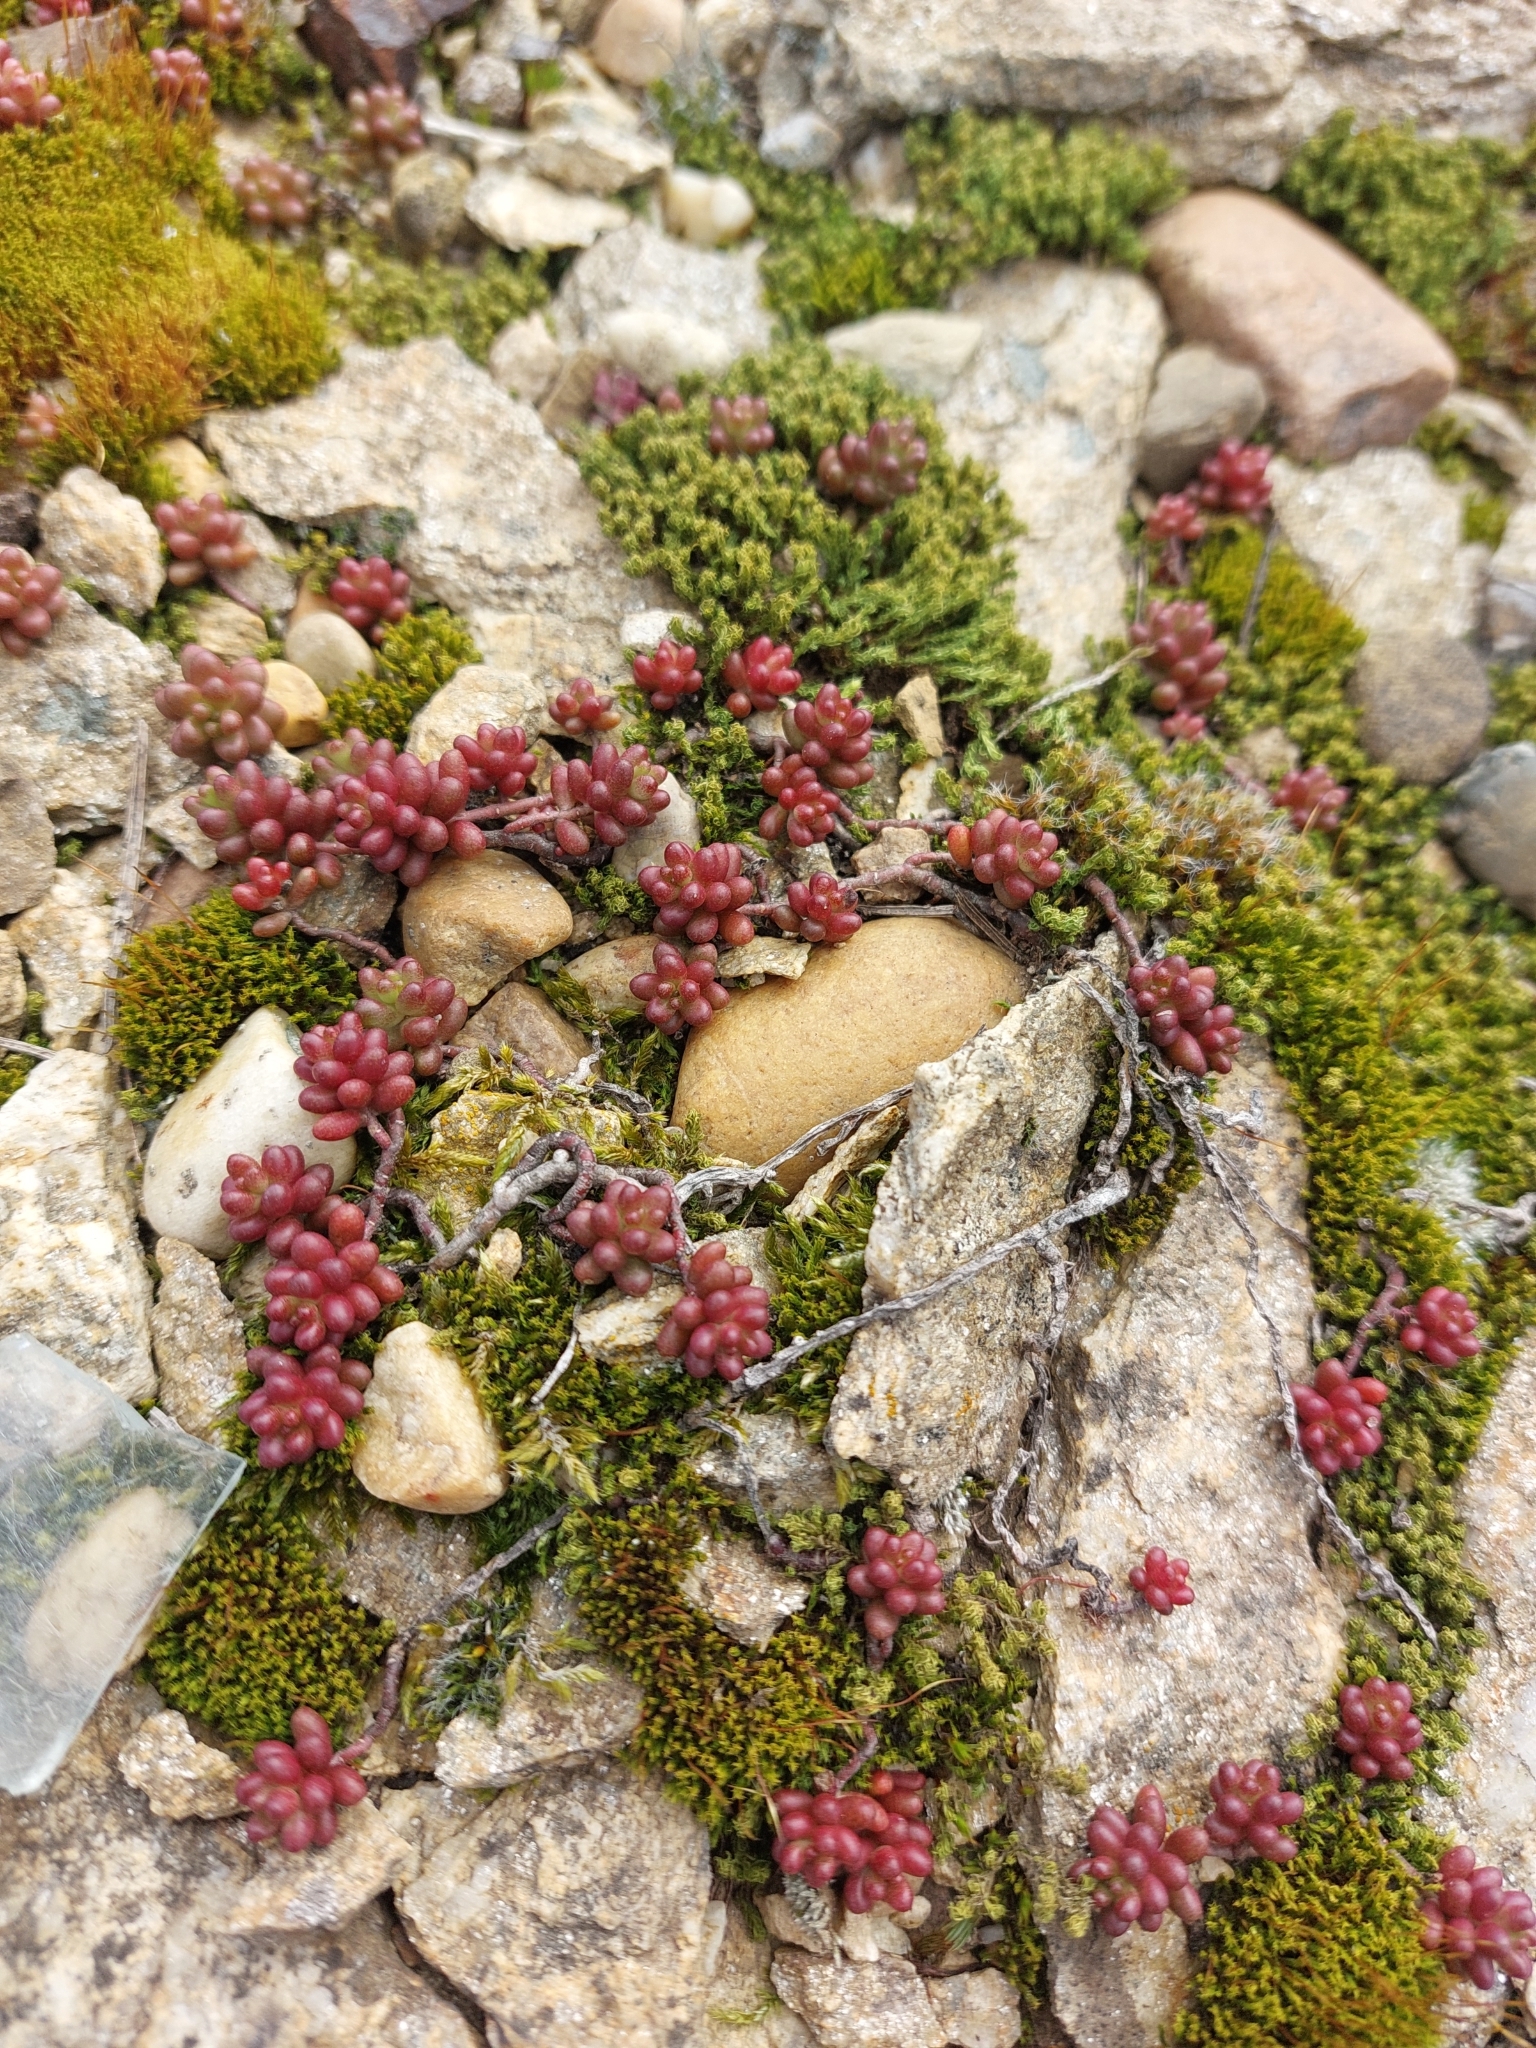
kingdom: Plantae
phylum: Tracheophyta
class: Magnoliopsida
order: Saxifragales
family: Crassulaceae
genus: Sedum
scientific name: Sedum album
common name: White stonecrop
